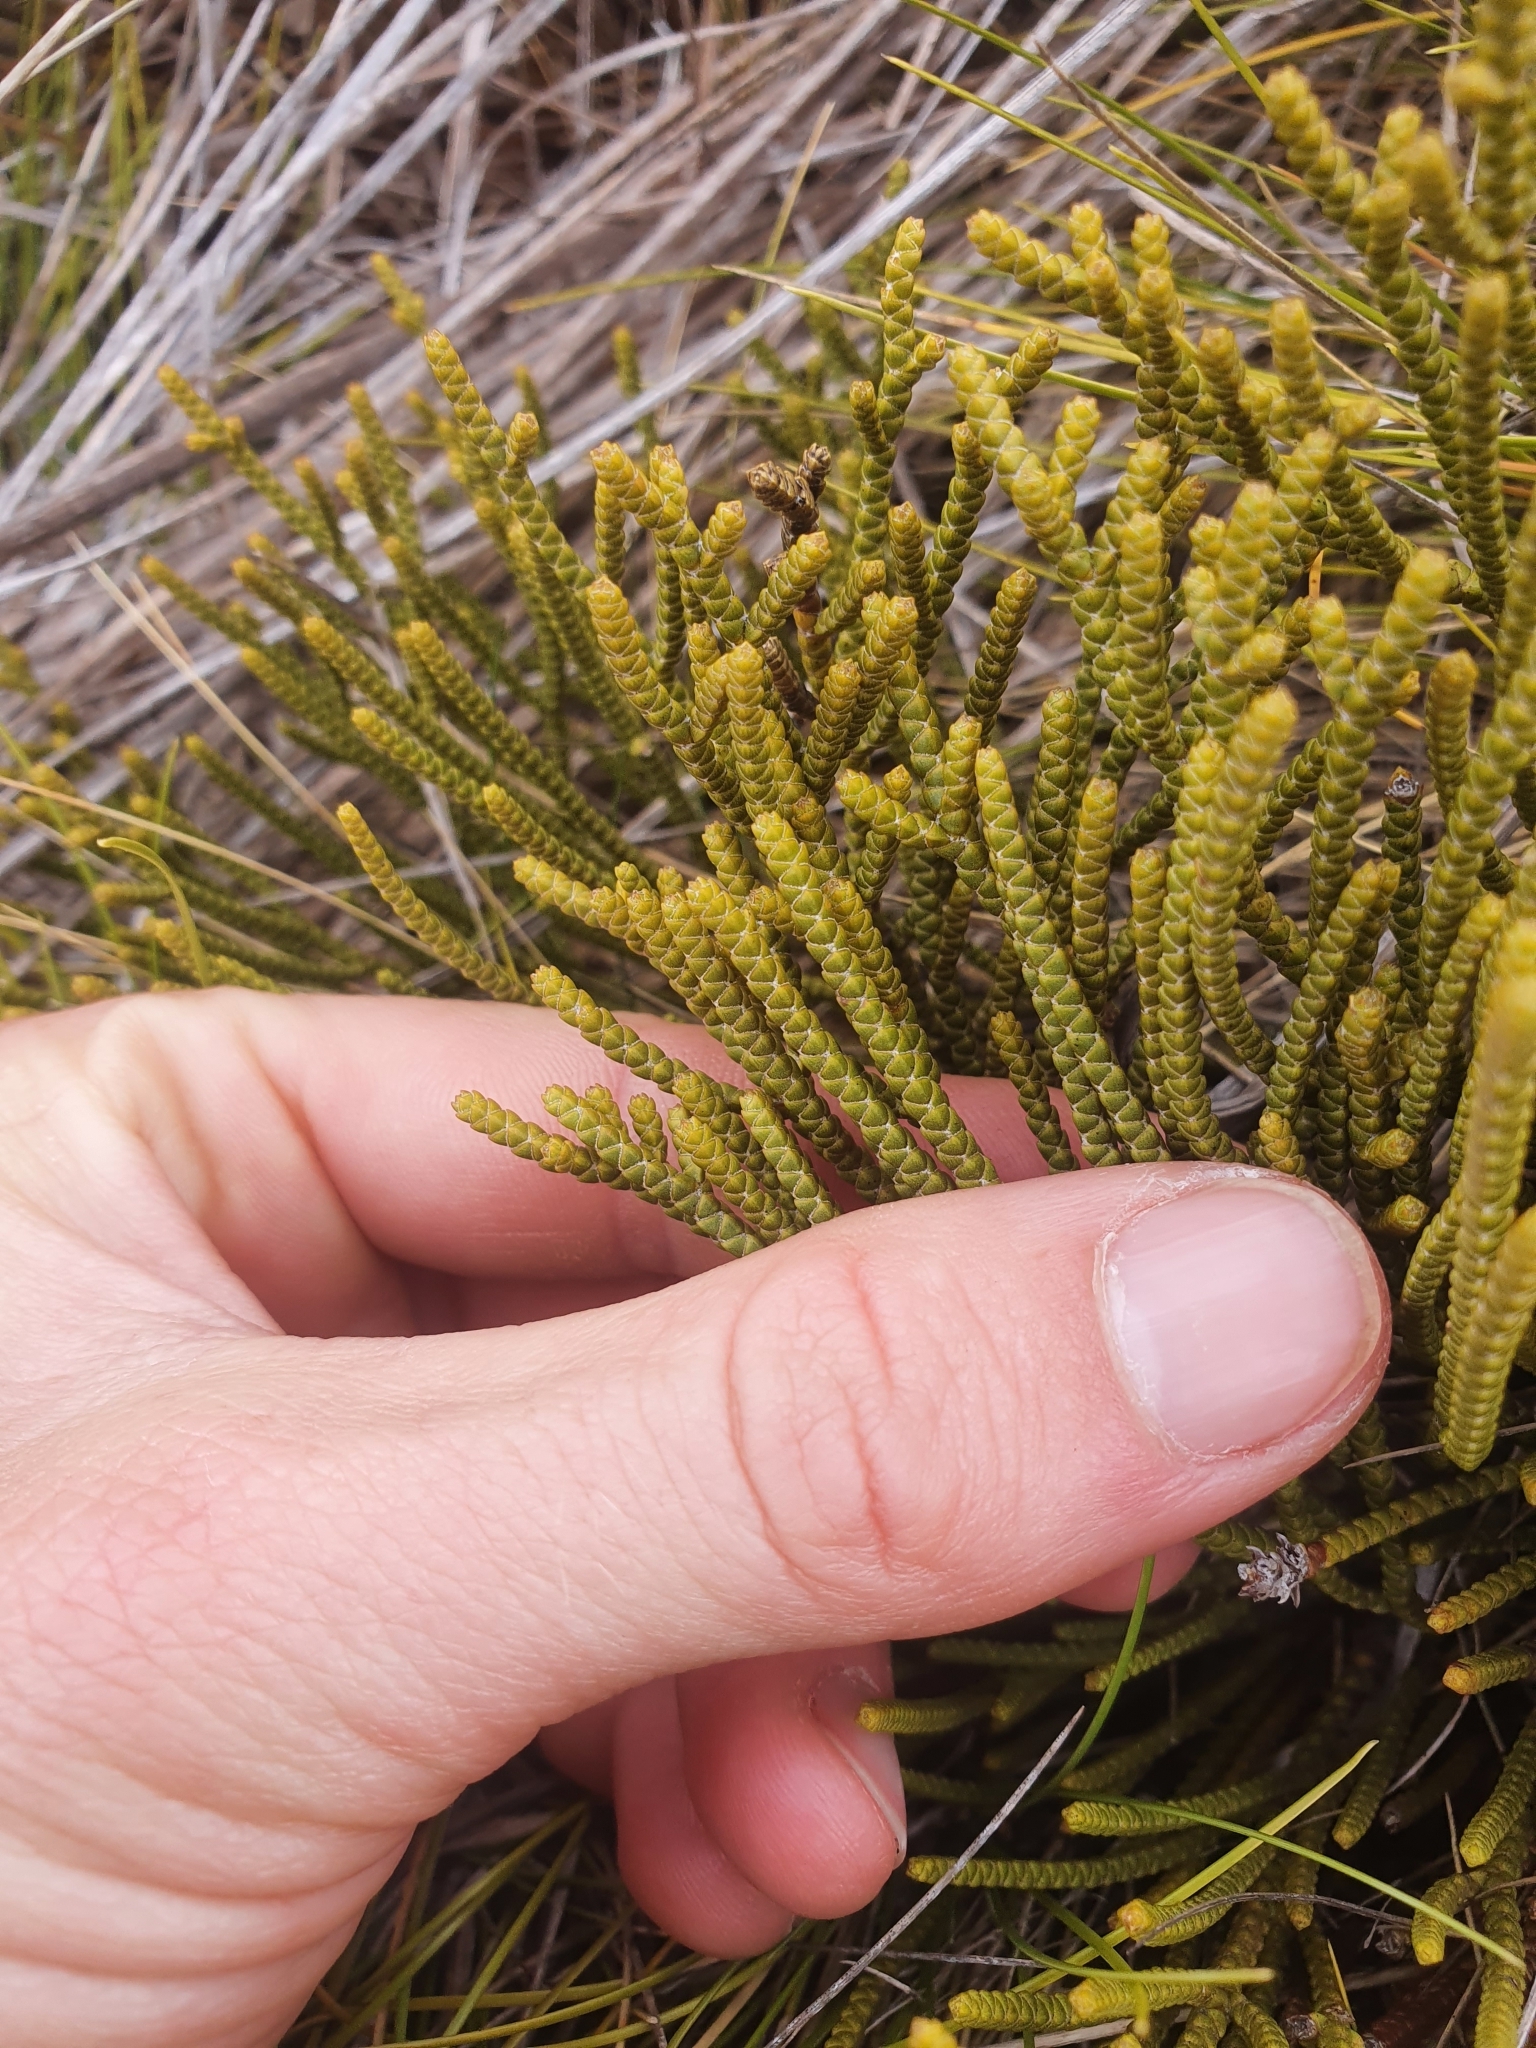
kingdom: Plantae
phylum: Tracheophyta
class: Magnoliopsida
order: Lamiales
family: Plantaginaceae
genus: Veronica
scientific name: Veronica lycopodioides
